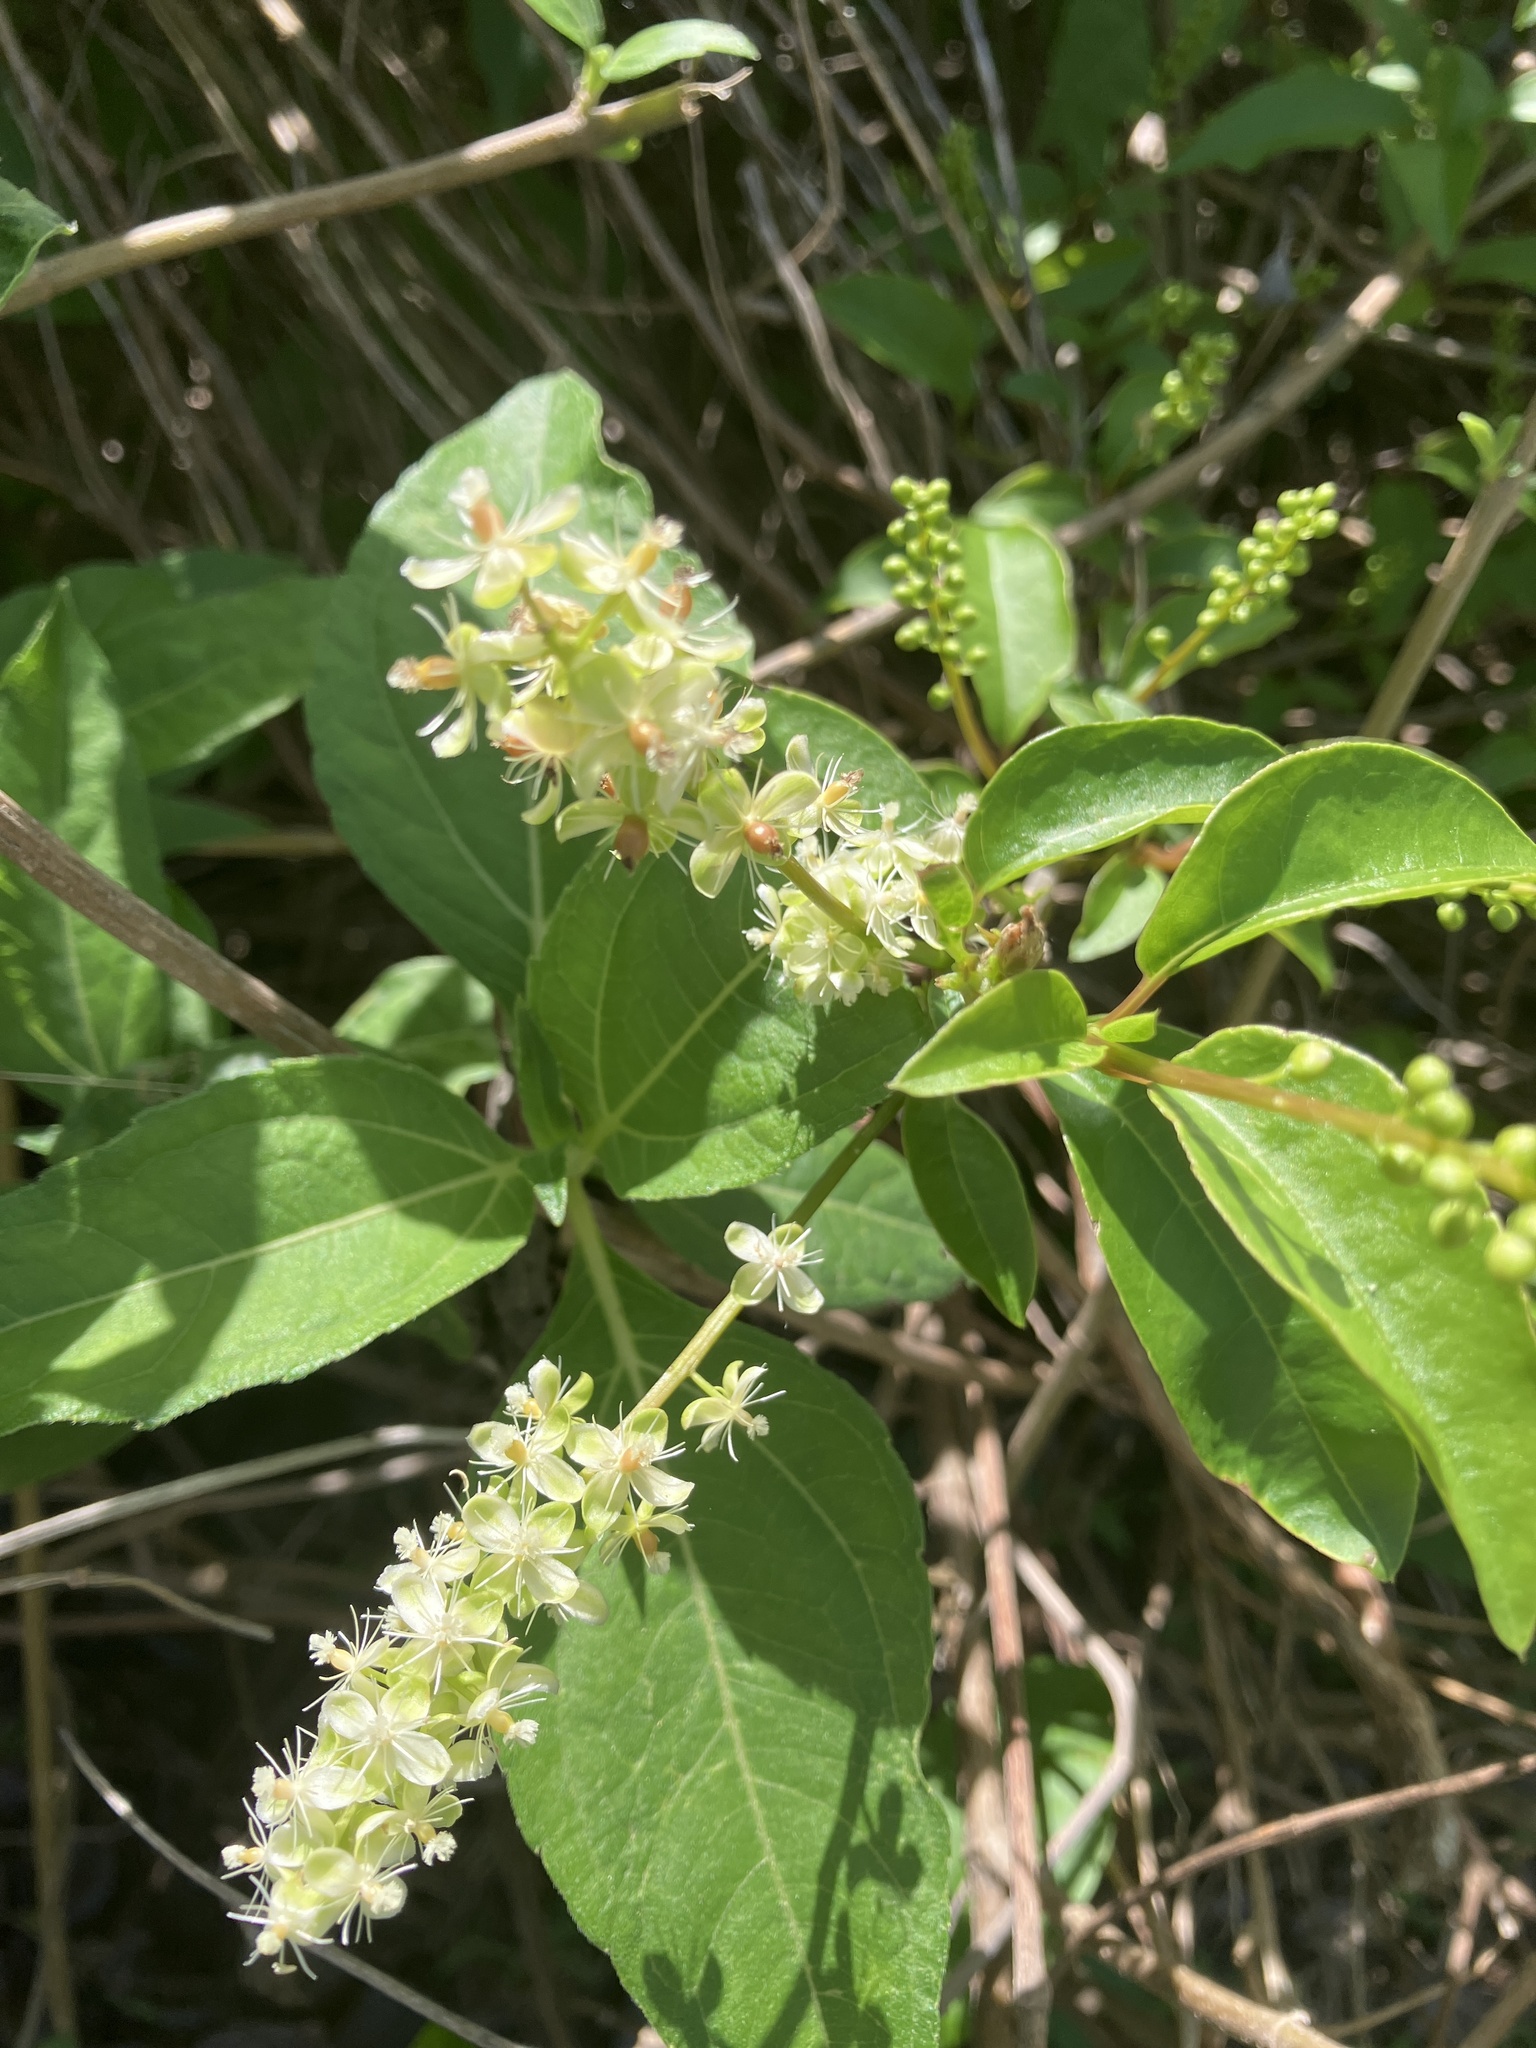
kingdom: Plantae
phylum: Tracheophyta
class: Magnoliopsida
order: Caryophyllales
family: Phytolaccaceae
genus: Trichostigma
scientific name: Trichostigma octandrum
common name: Basket wiss
